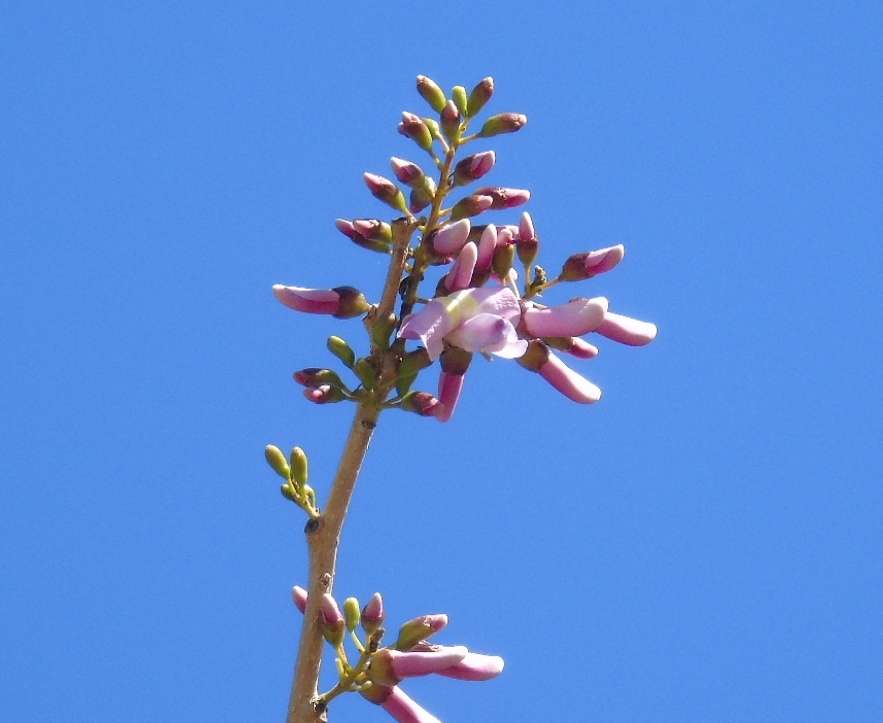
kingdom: Plantae
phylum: Tracheophyta
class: Magnoliopsida
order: Fabales
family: Fabaceae
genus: Gliricidia
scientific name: Gliricidia sepium
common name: Quickstick
